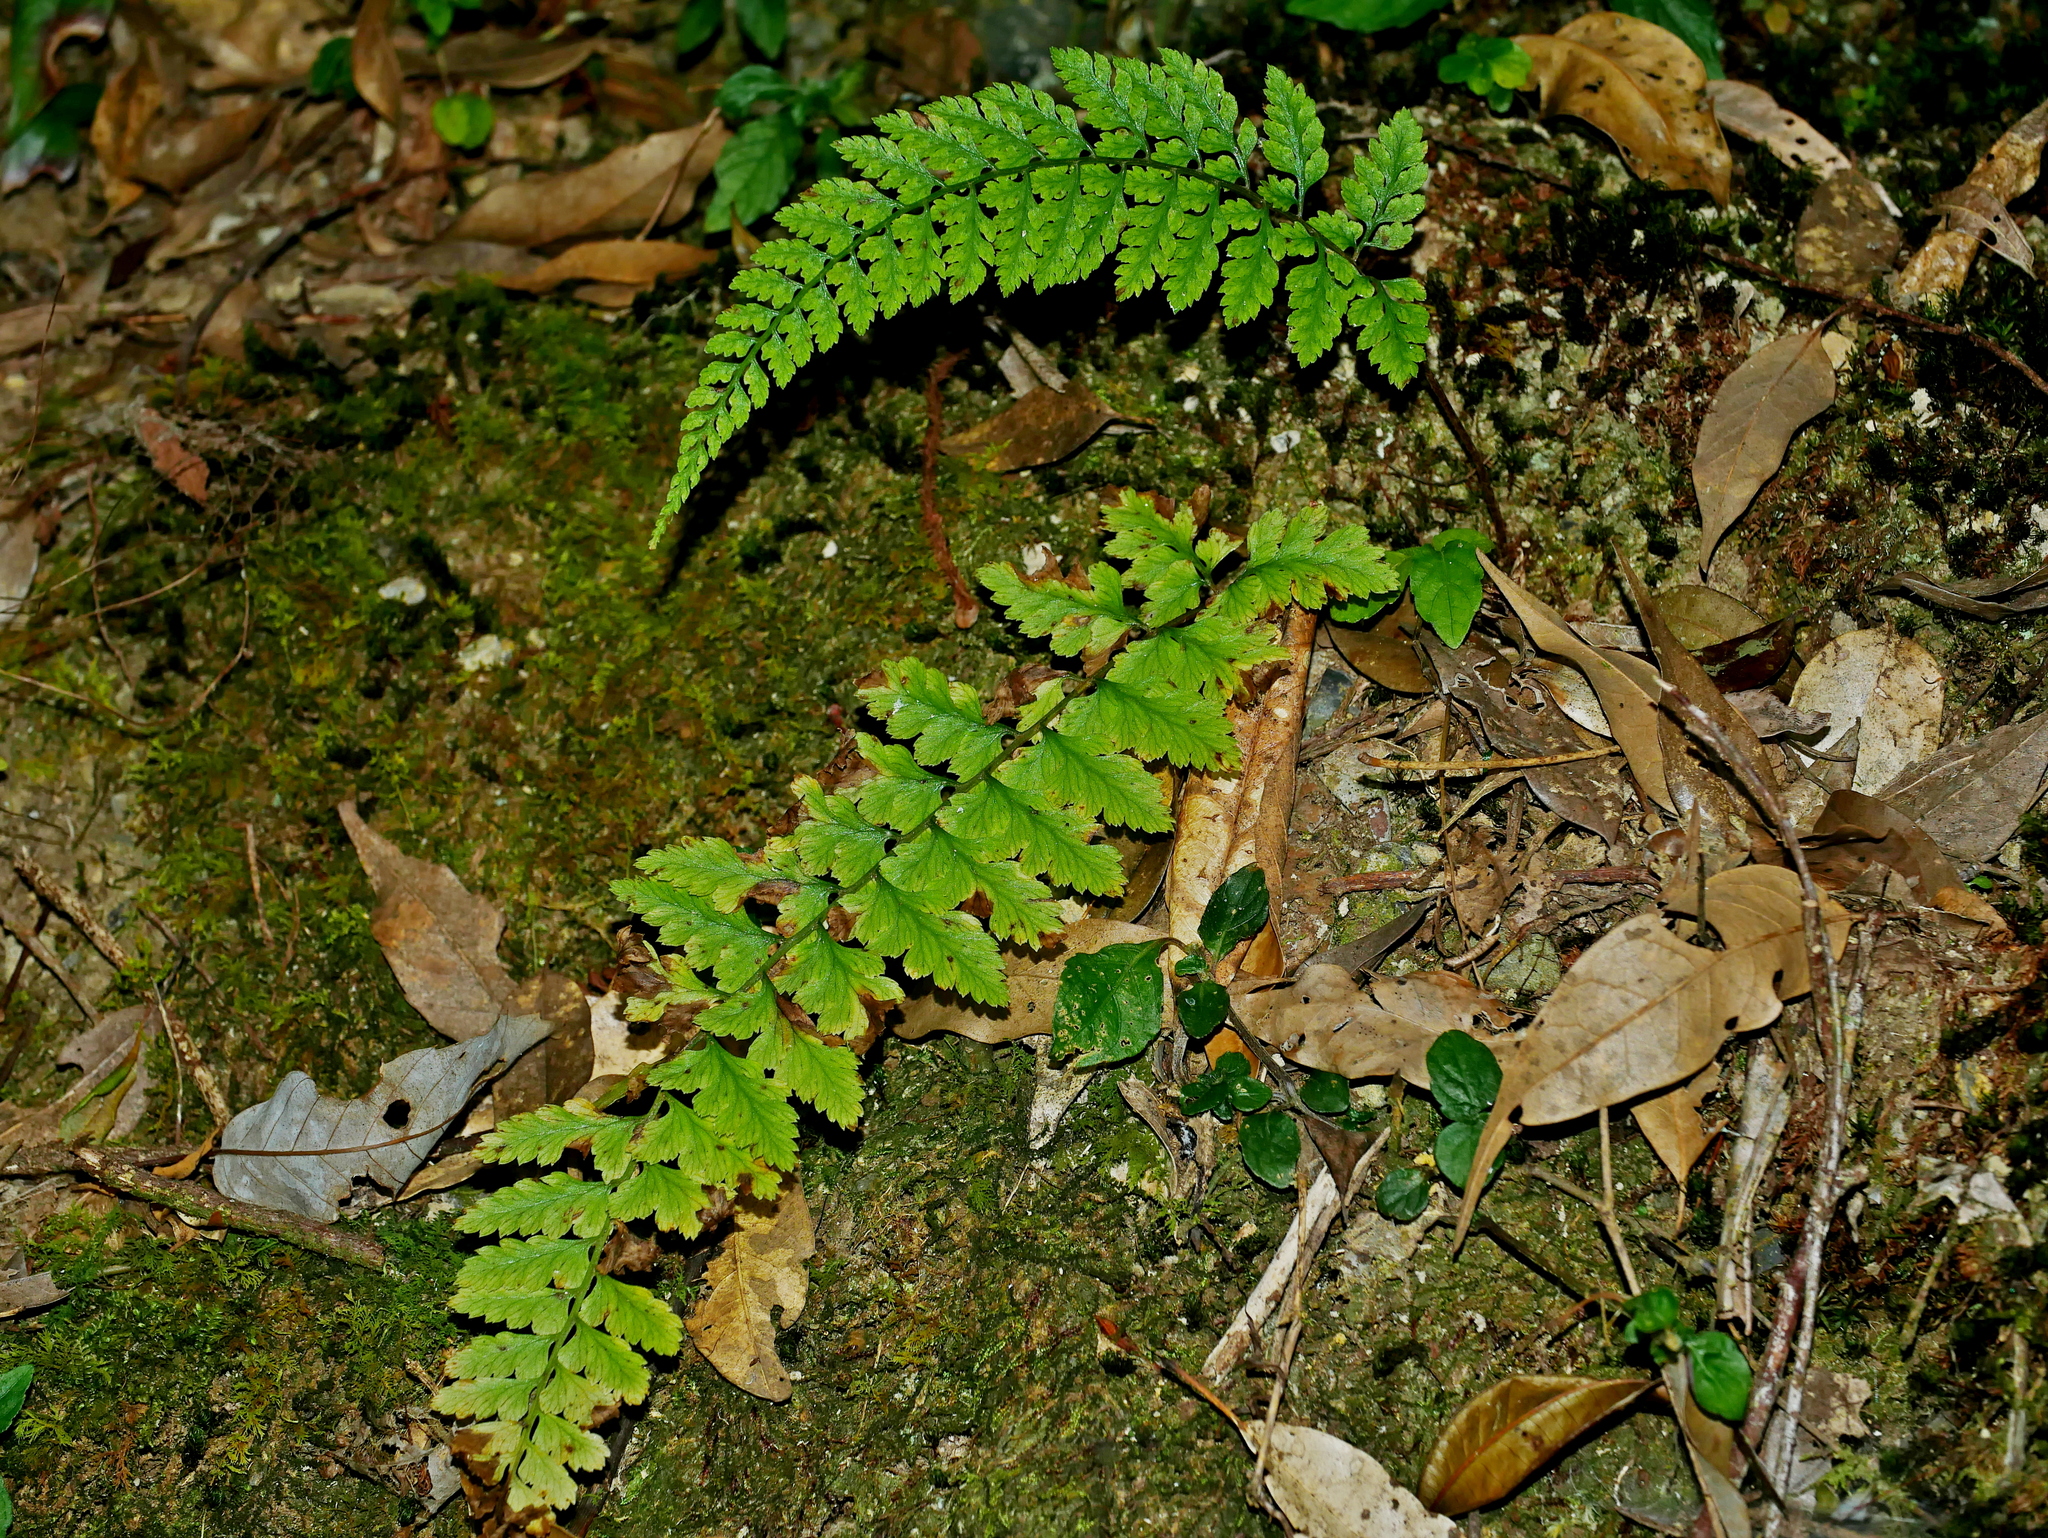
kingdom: Plantae
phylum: Tracheophyta
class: Polypodiopsida
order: Polypodiales
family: Athyriaceae
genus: Athyrium
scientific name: Athyrium anisopterum
